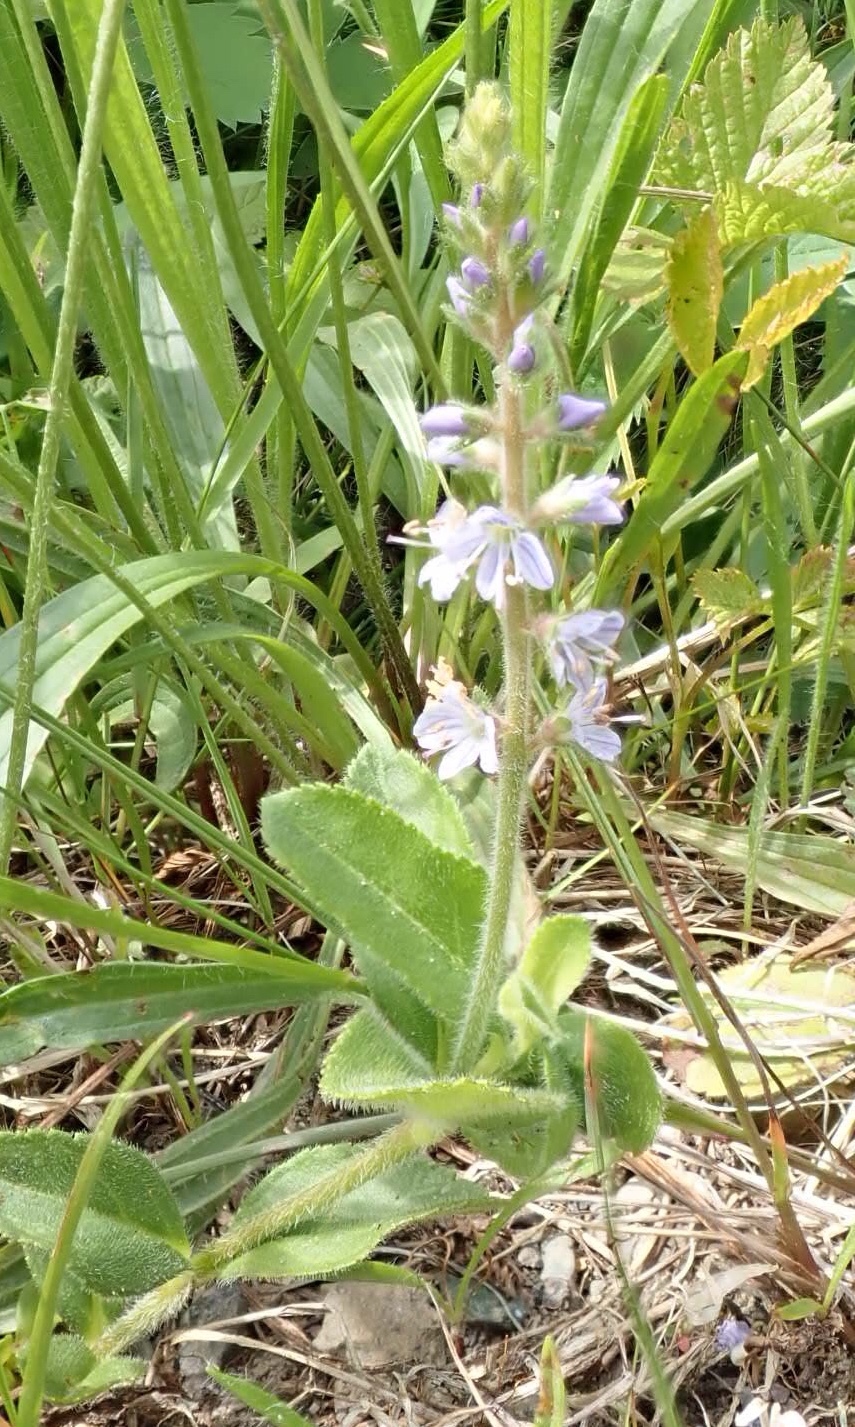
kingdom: Plantae
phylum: Tracheophyta
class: Magnoliopsida
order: Lamiales
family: Plantaginaceae
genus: Veronica
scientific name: Veronica officinalis
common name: Common speedwell
